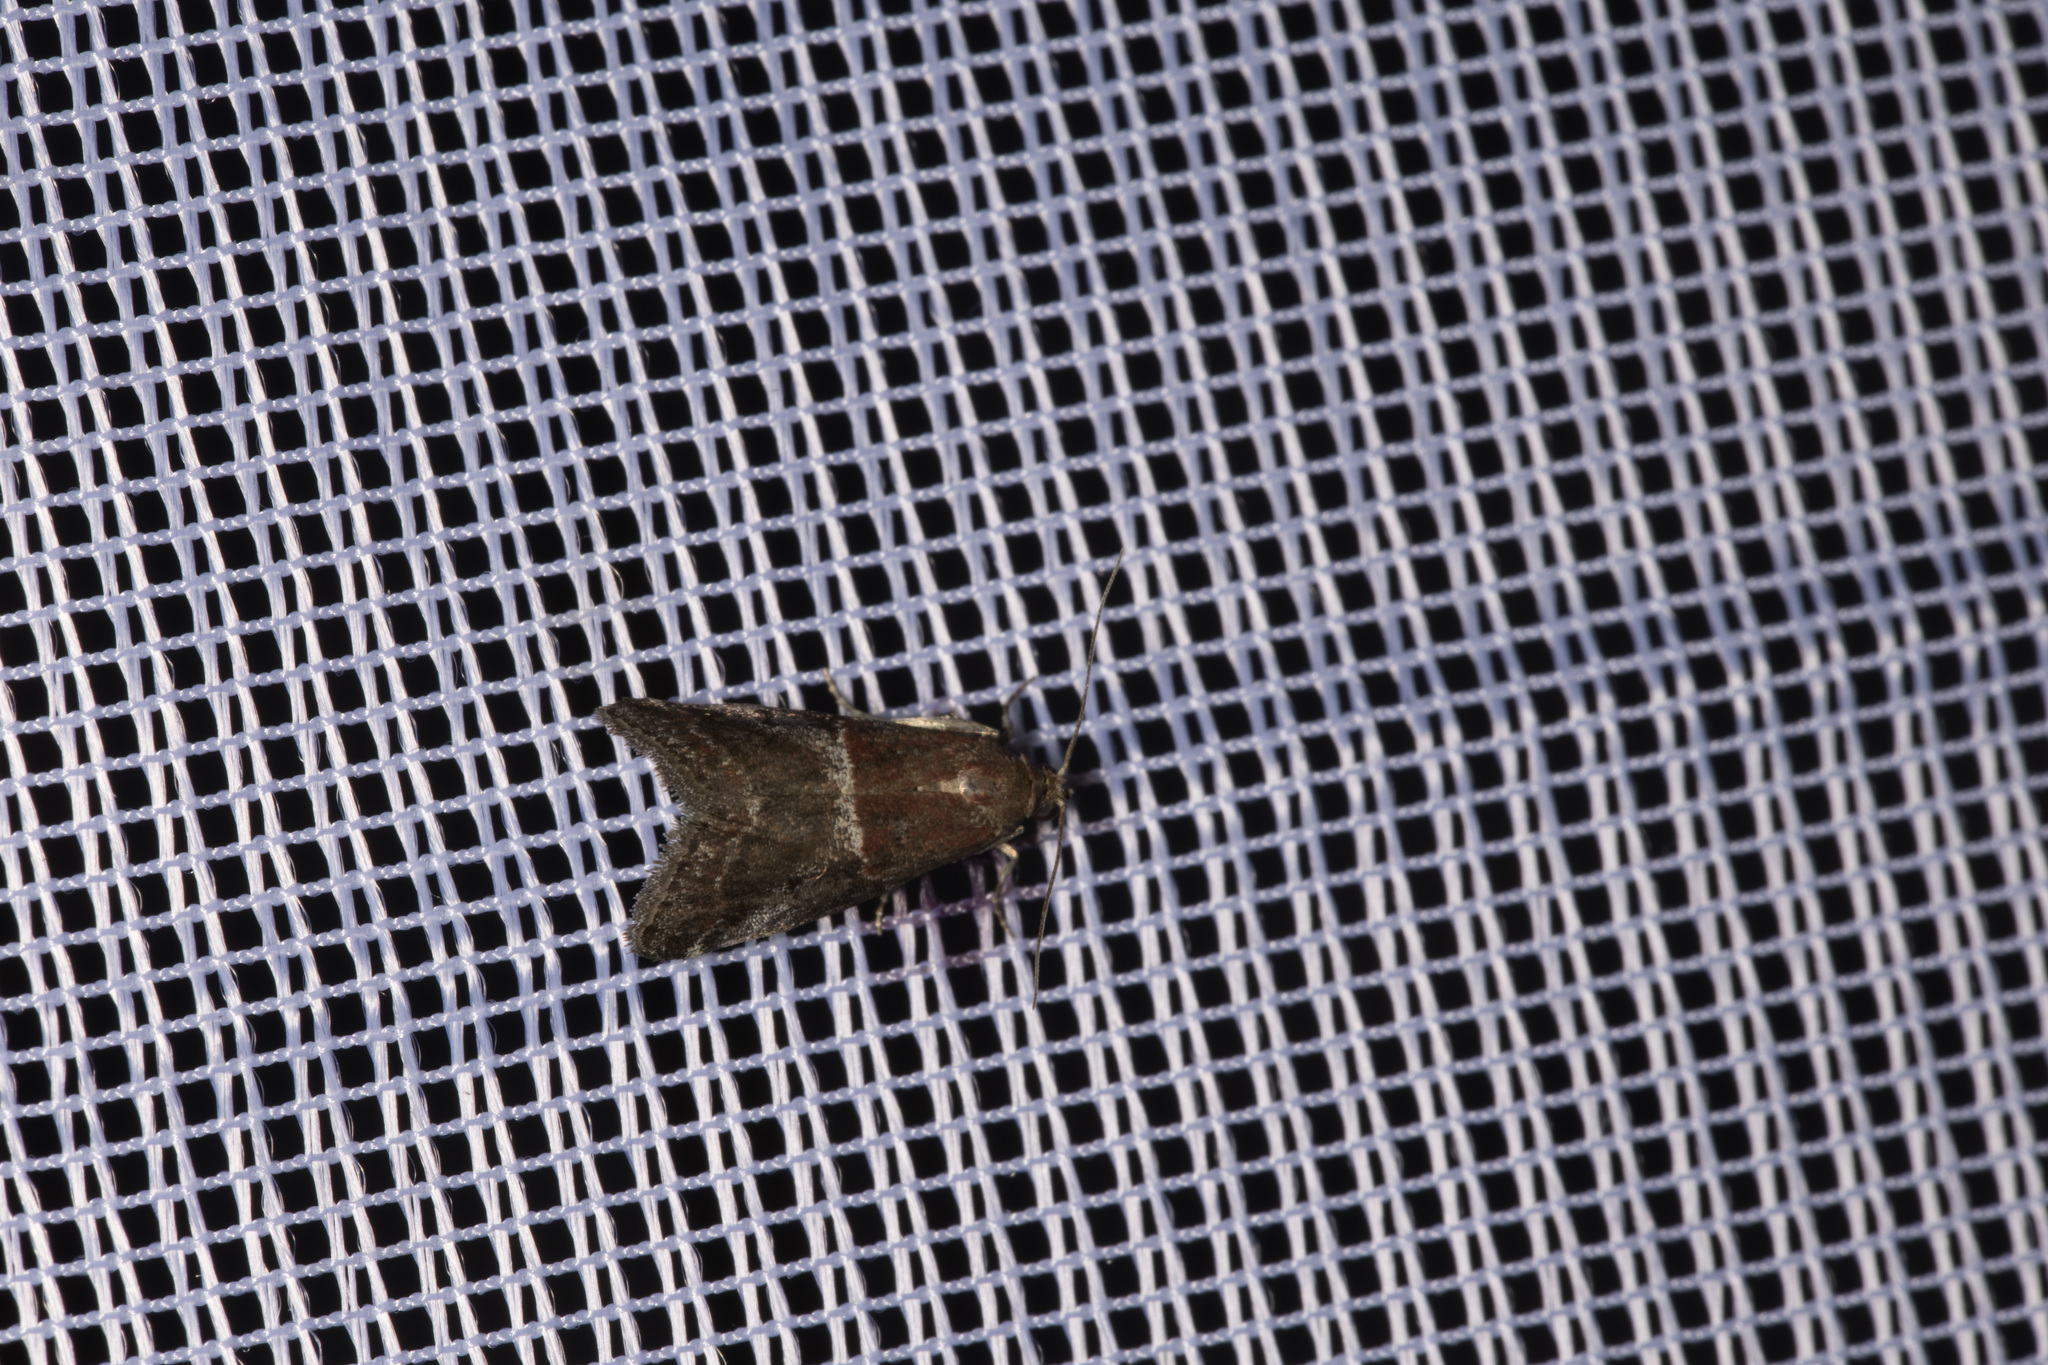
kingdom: Animalia
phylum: Arthropoda
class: Insecta
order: Lepidoptera
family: Pyralidae
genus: Acrobasis
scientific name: Acrobasis marmorea
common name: Marbled knot-horn
